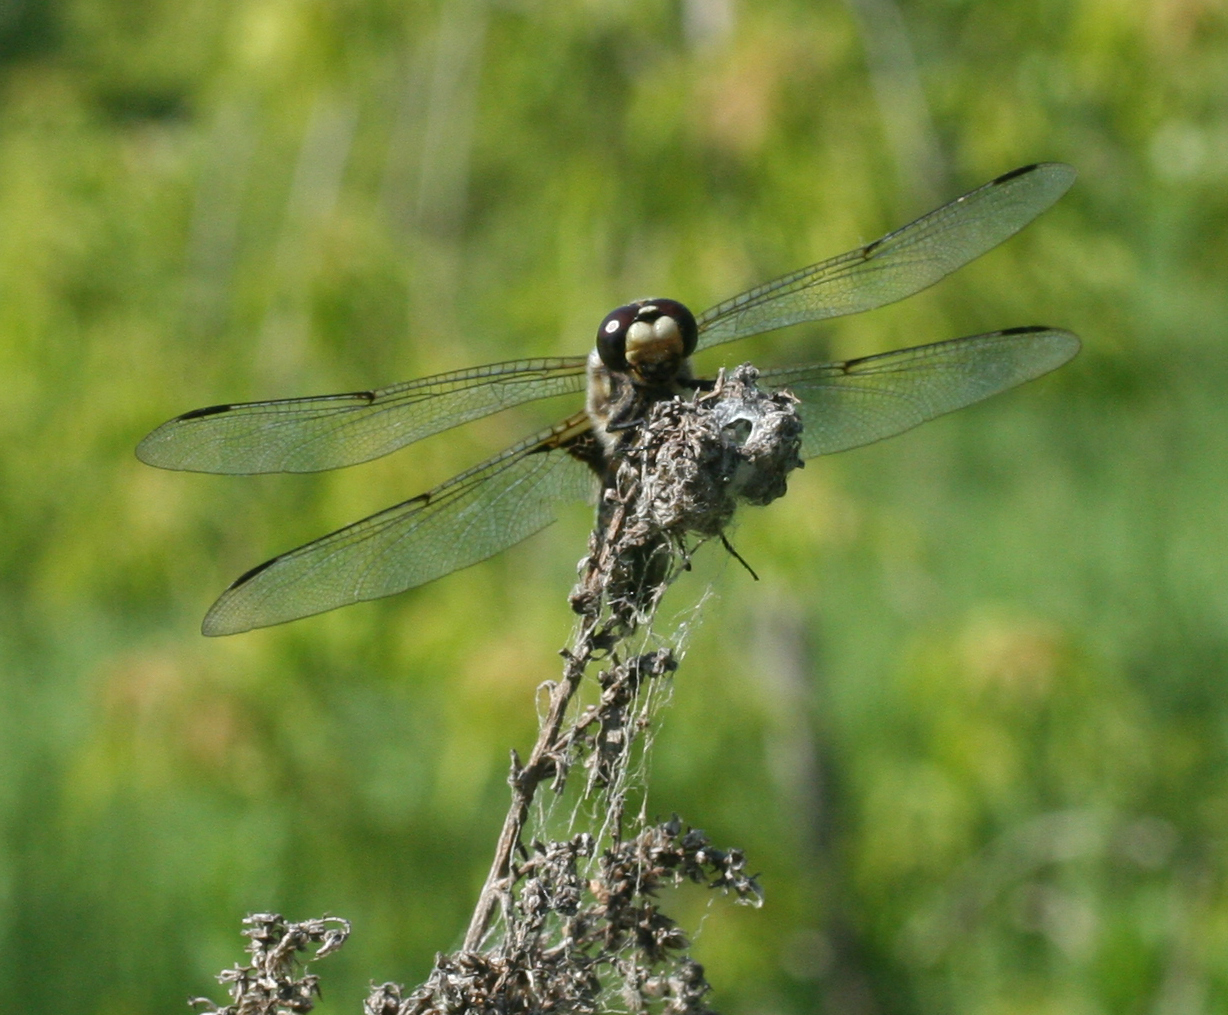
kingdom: Animalia
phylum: Arthropoda
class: Insecta
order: Odonata
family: Libellulidae
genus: Libellula
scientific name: Libellula quadrimaculata
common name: Four-spotted chaser
